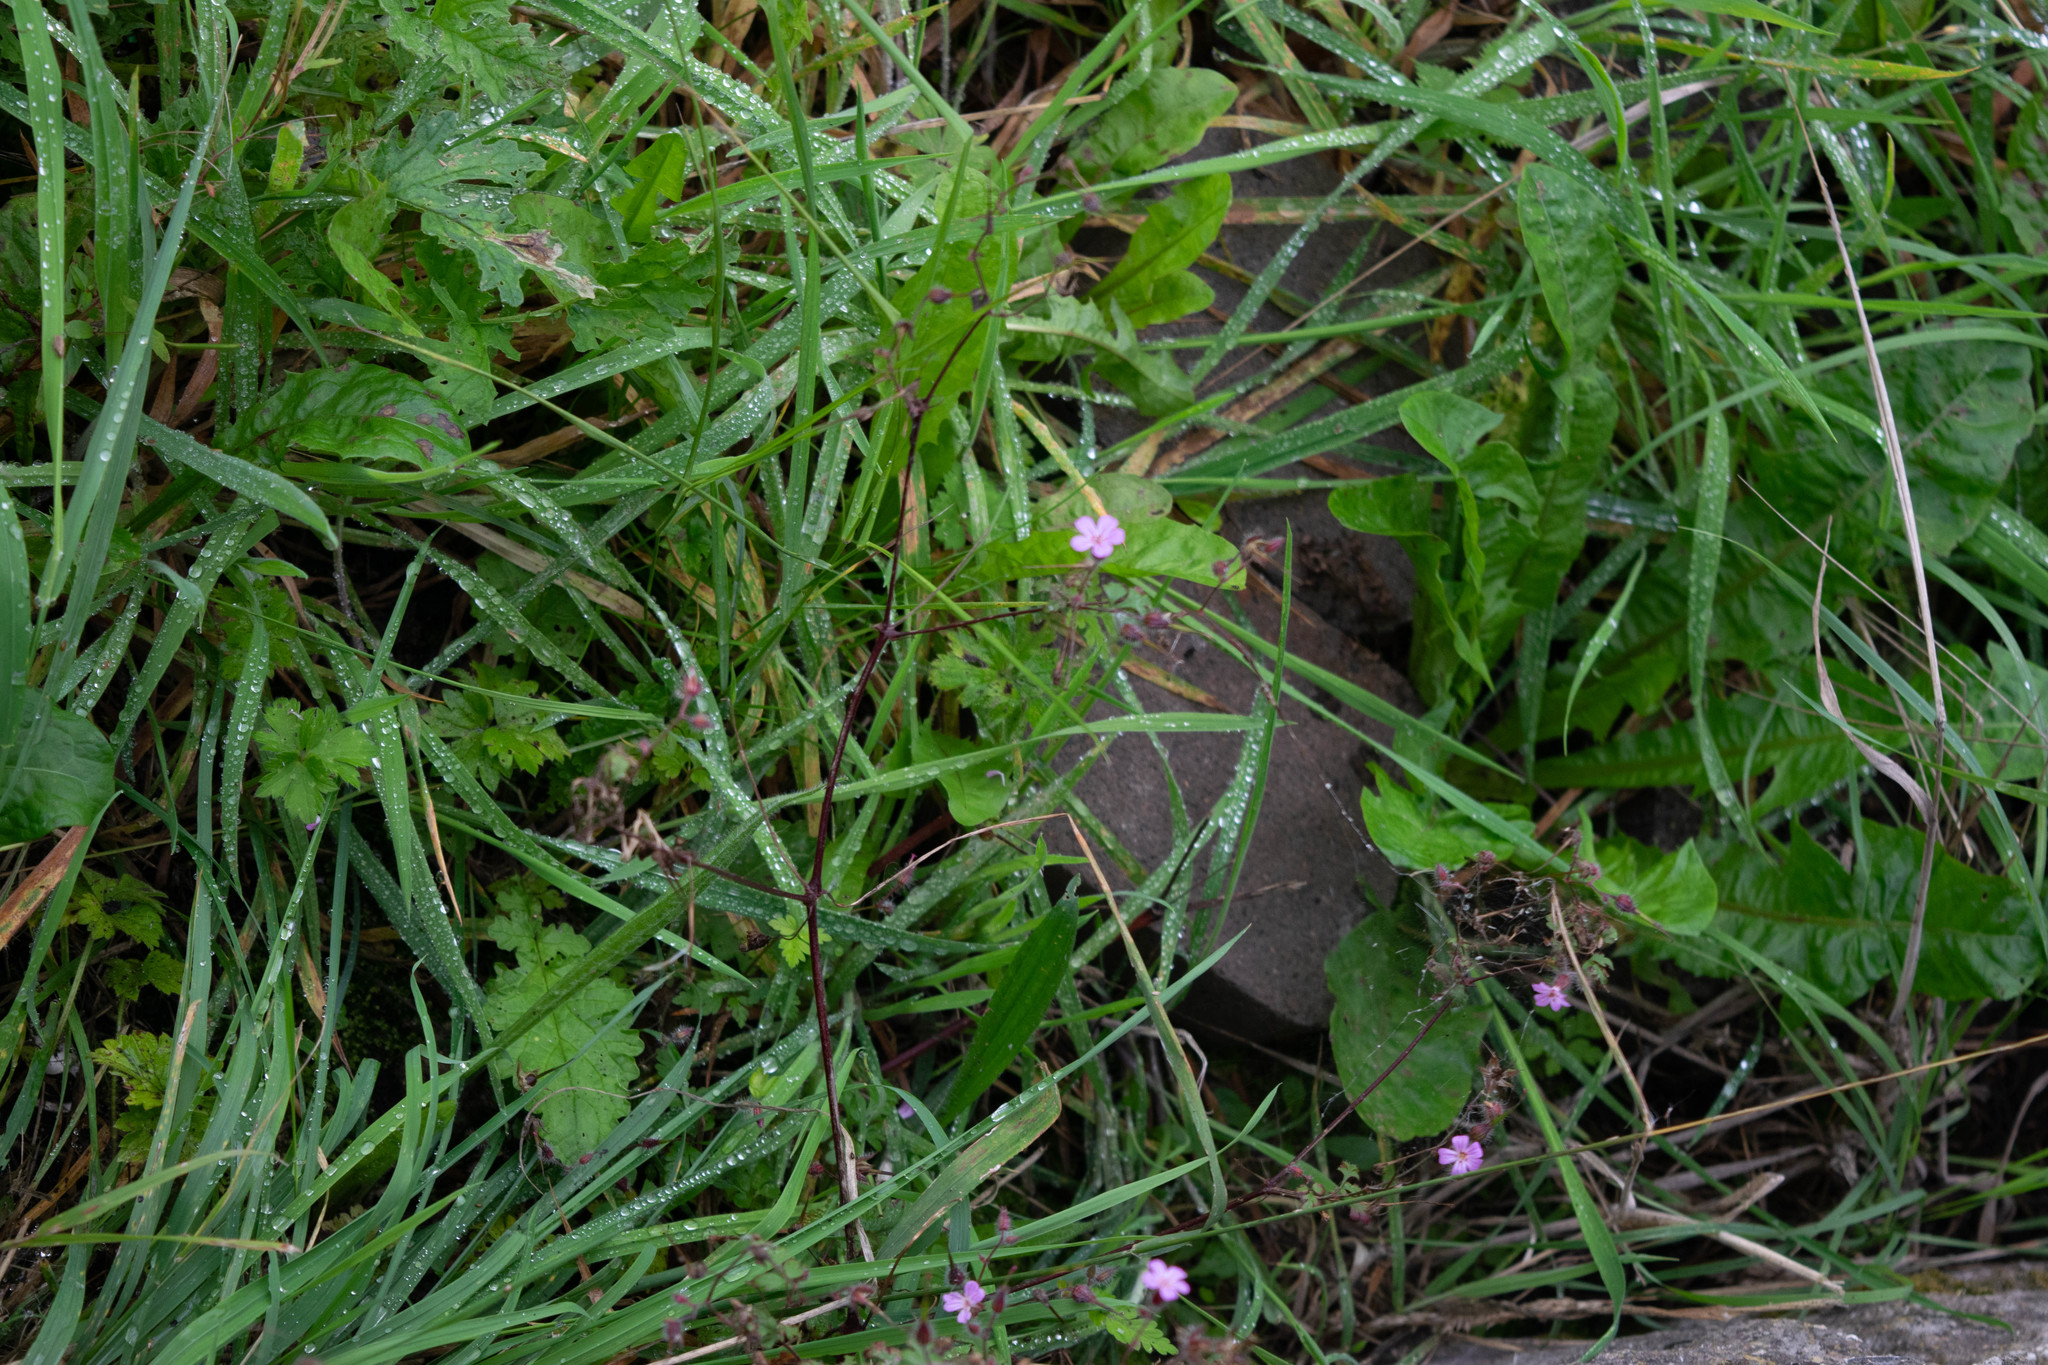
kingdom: Plantae
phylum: Tracheophyta
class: Magnoliopsida
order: Geraniales
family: Geraniaceae
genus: Geranium
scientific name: Geranium robertianum
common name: Herb-robert
